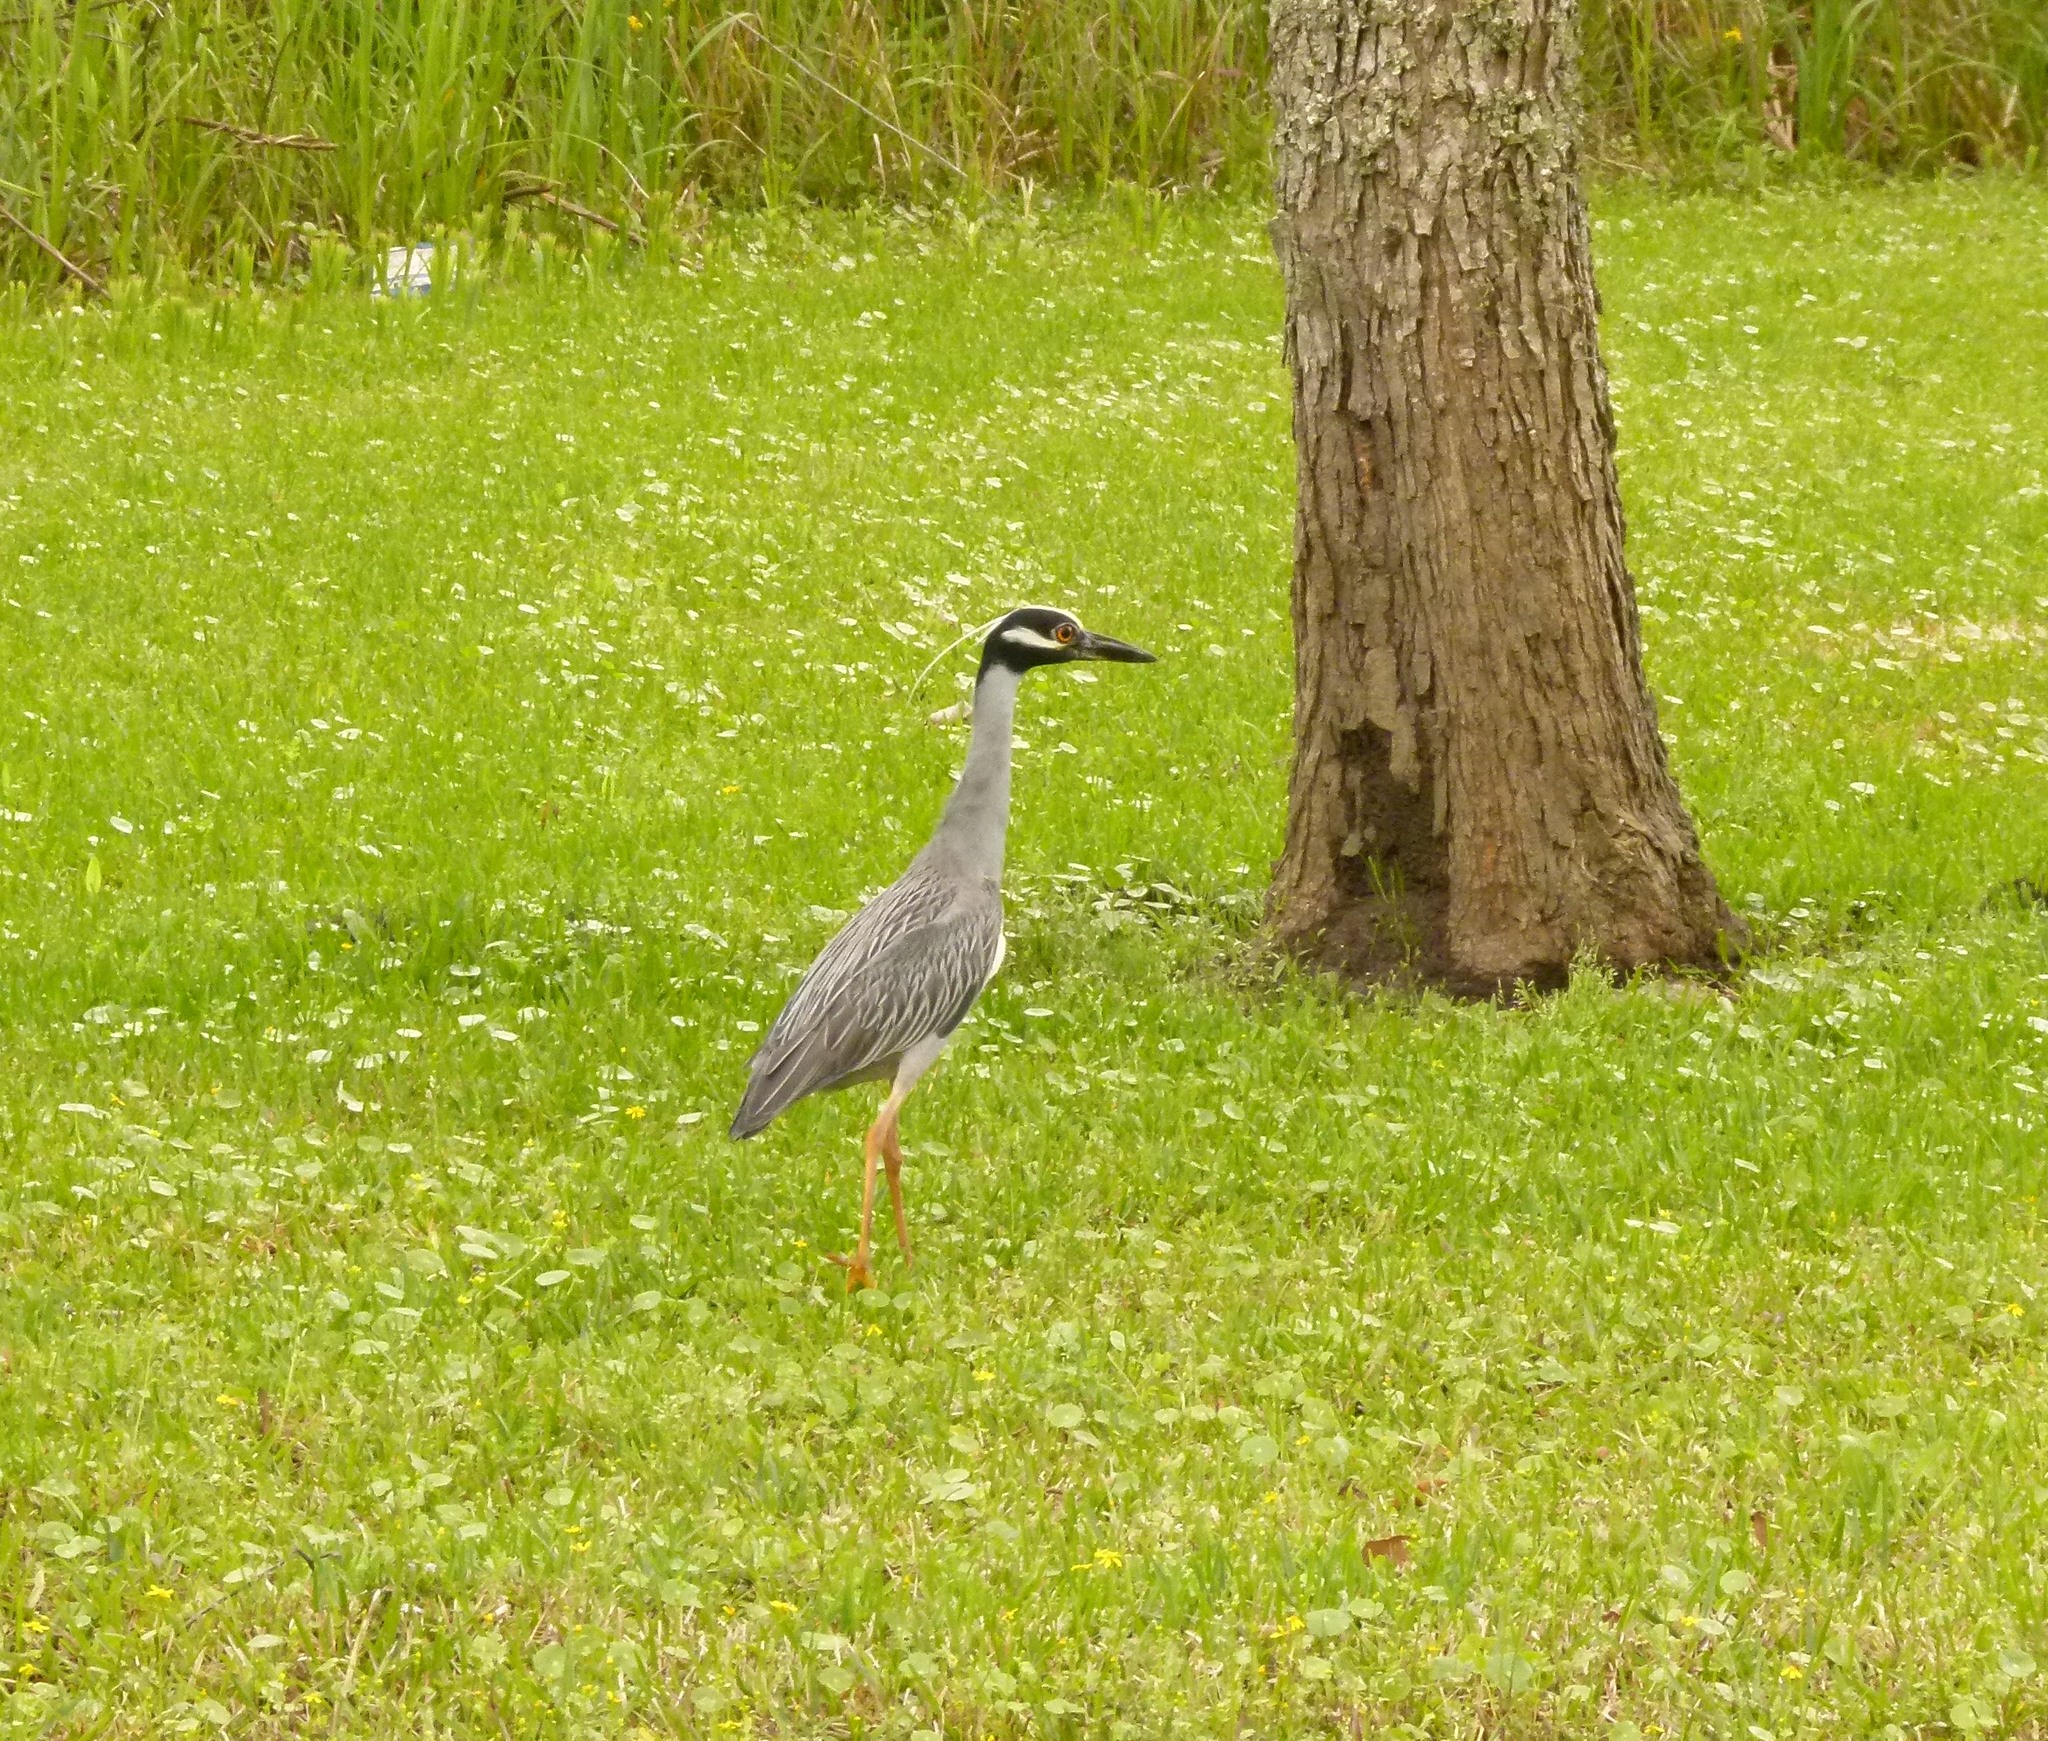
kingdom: Animalia
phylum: Chordata
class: Aves
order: Pelecaniformes
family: Ardeidae
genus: Nyctanassa
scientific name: Nyctanassa violacea
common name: Yellow-crowned night heron
